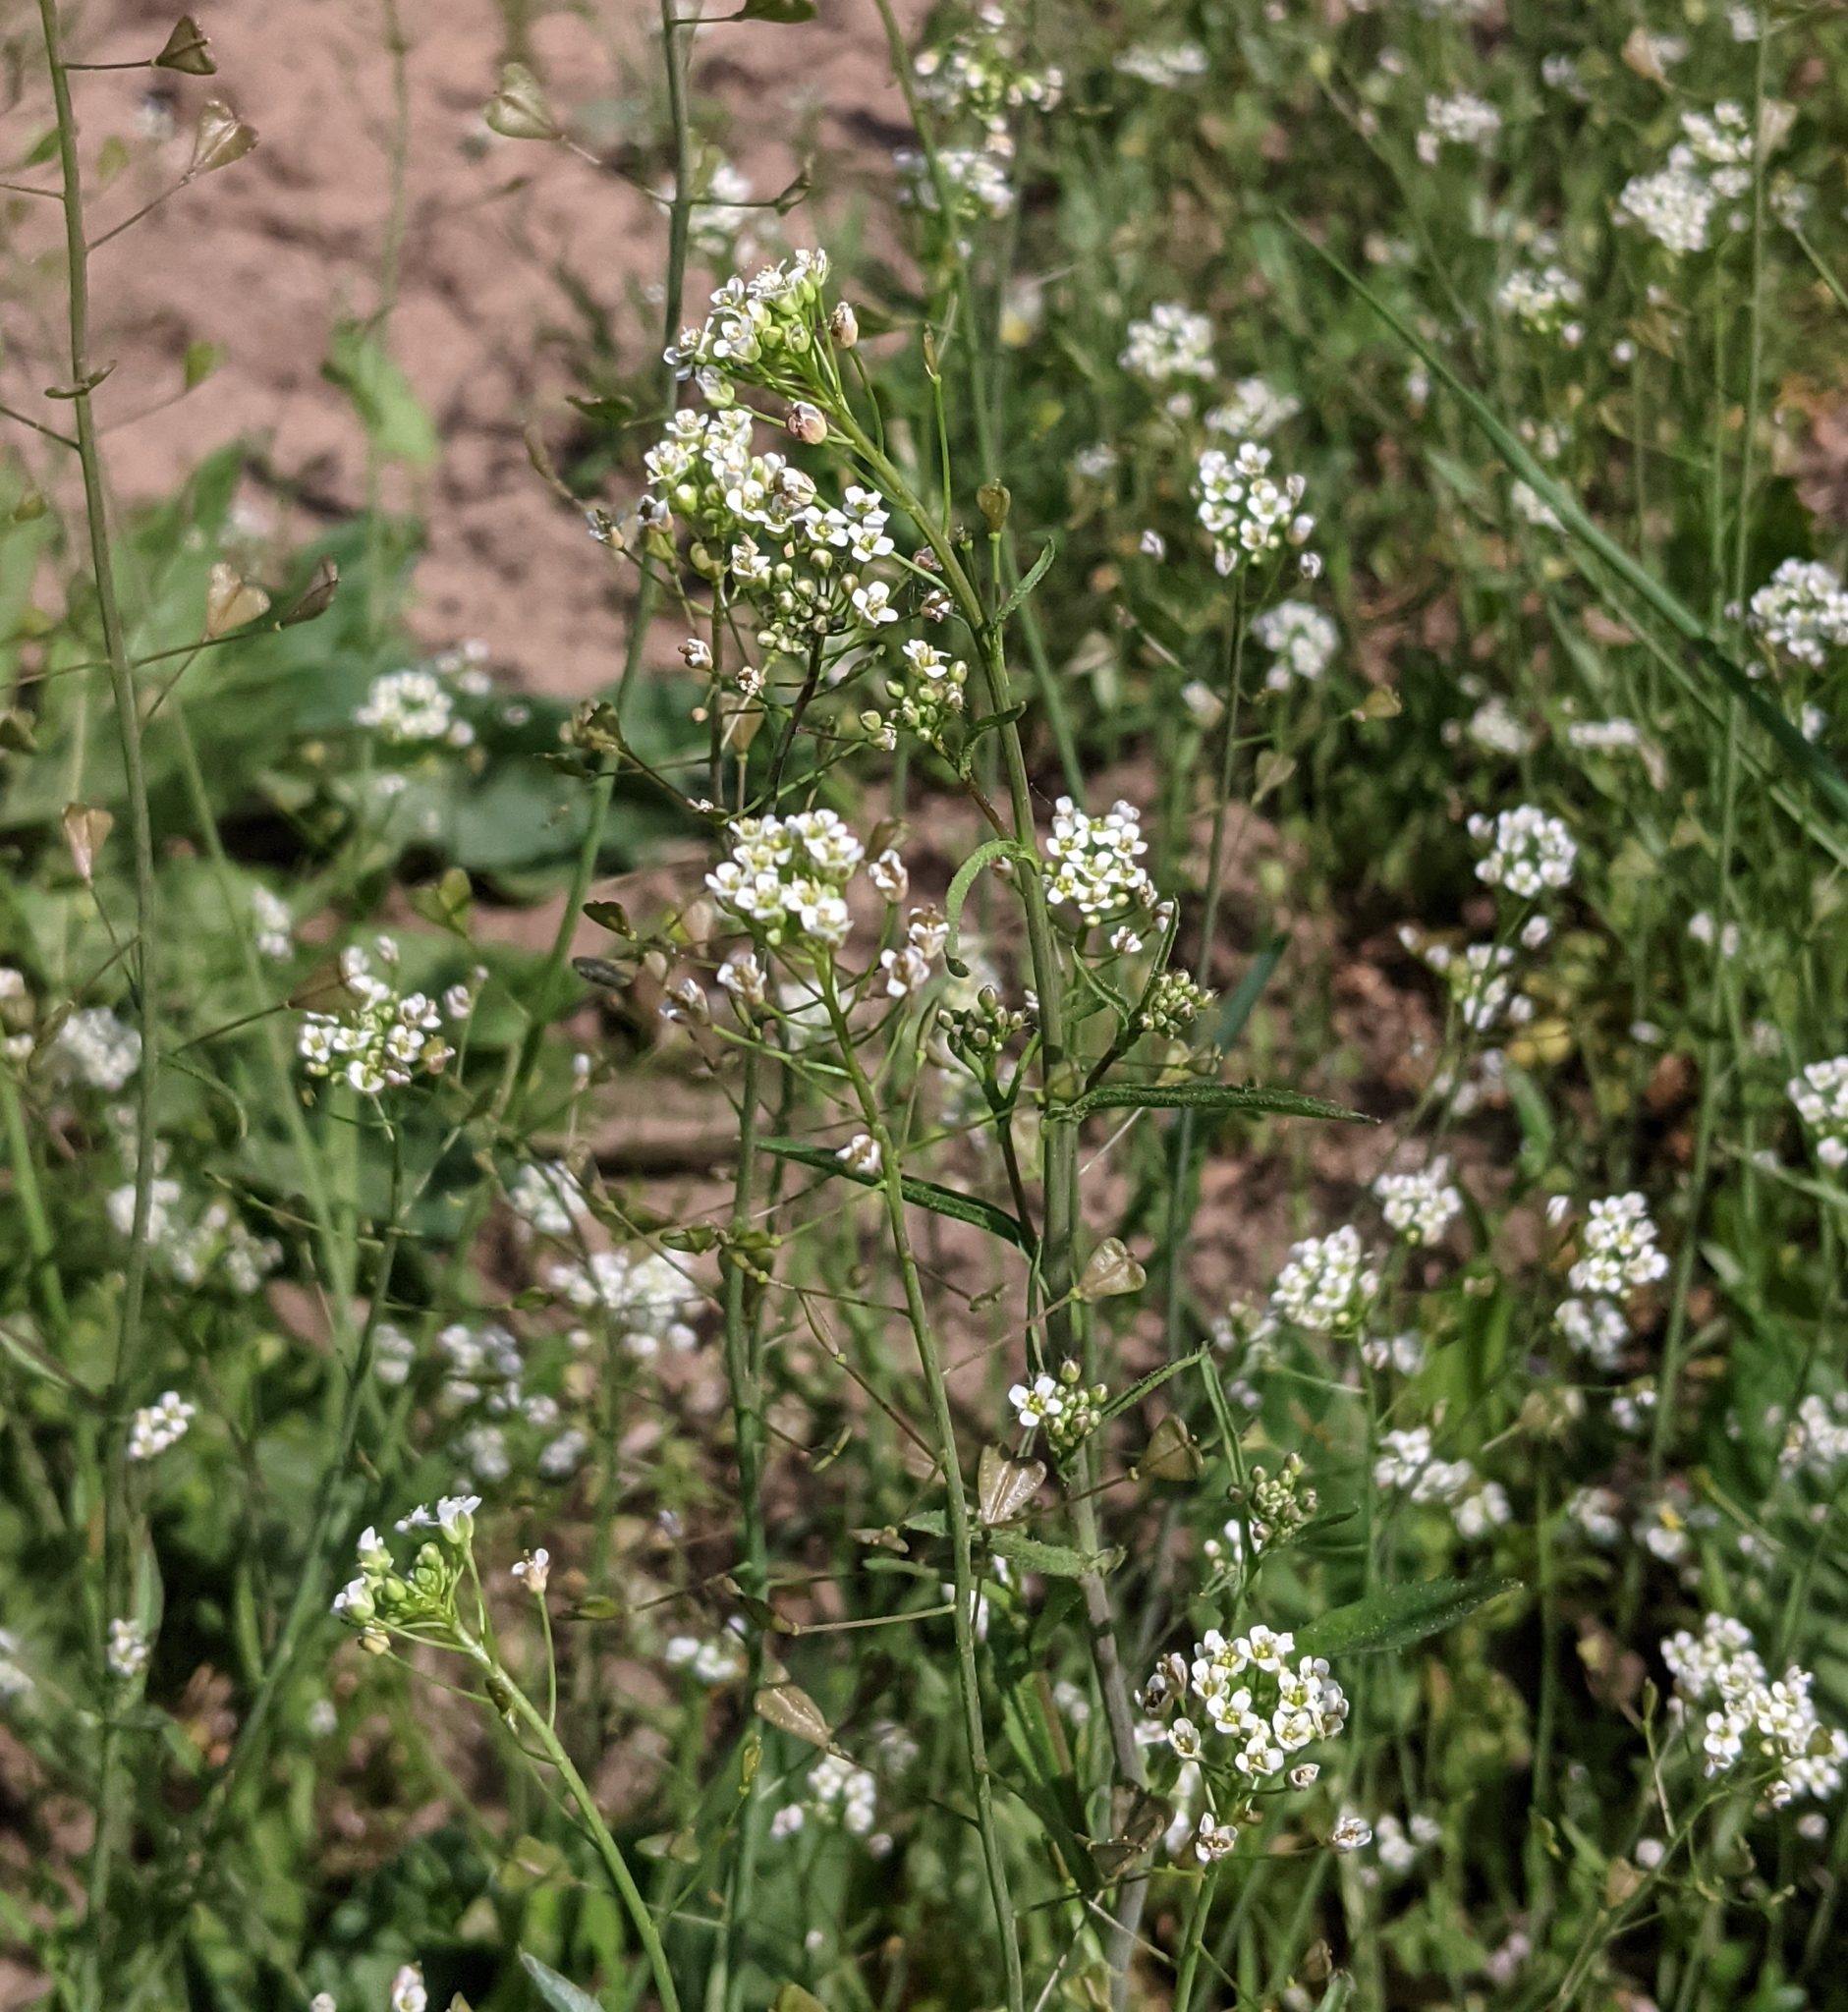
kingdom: Plantae
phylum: Tracheophyta
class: Magnoliopsida
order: Brassicales
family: Brassicaceae
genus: Capsella
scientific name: Capsella bursa-pastoris
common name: Shepherd's purse
